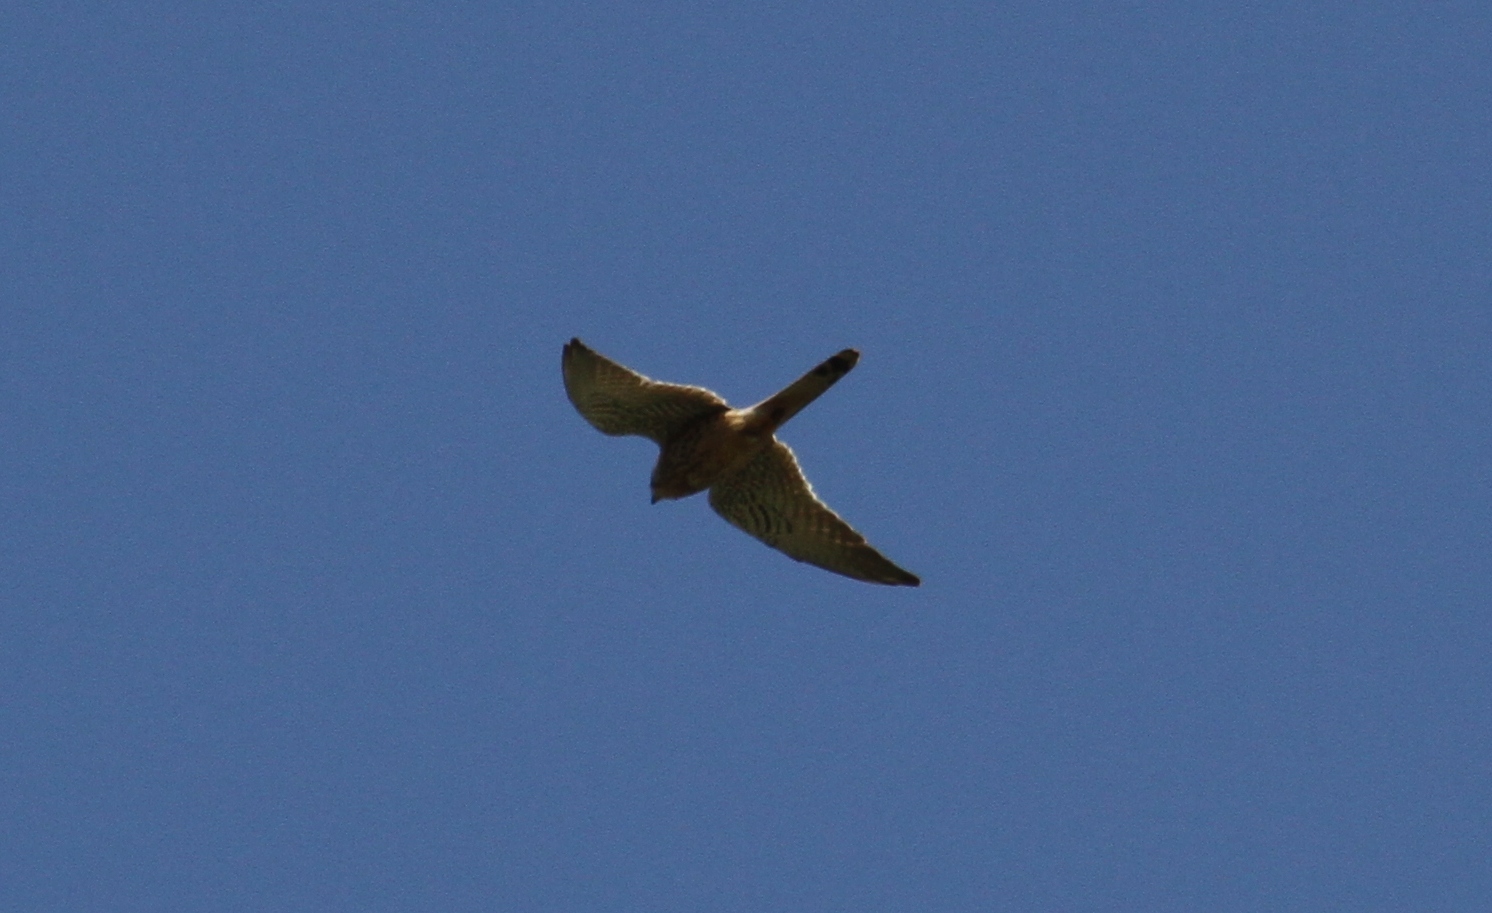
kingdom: Animalia
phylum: Chordata
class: Aves
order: Falconiformes
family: Falconidae
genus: Falco
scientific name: Falco tinnunculus
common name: Common kestrel
